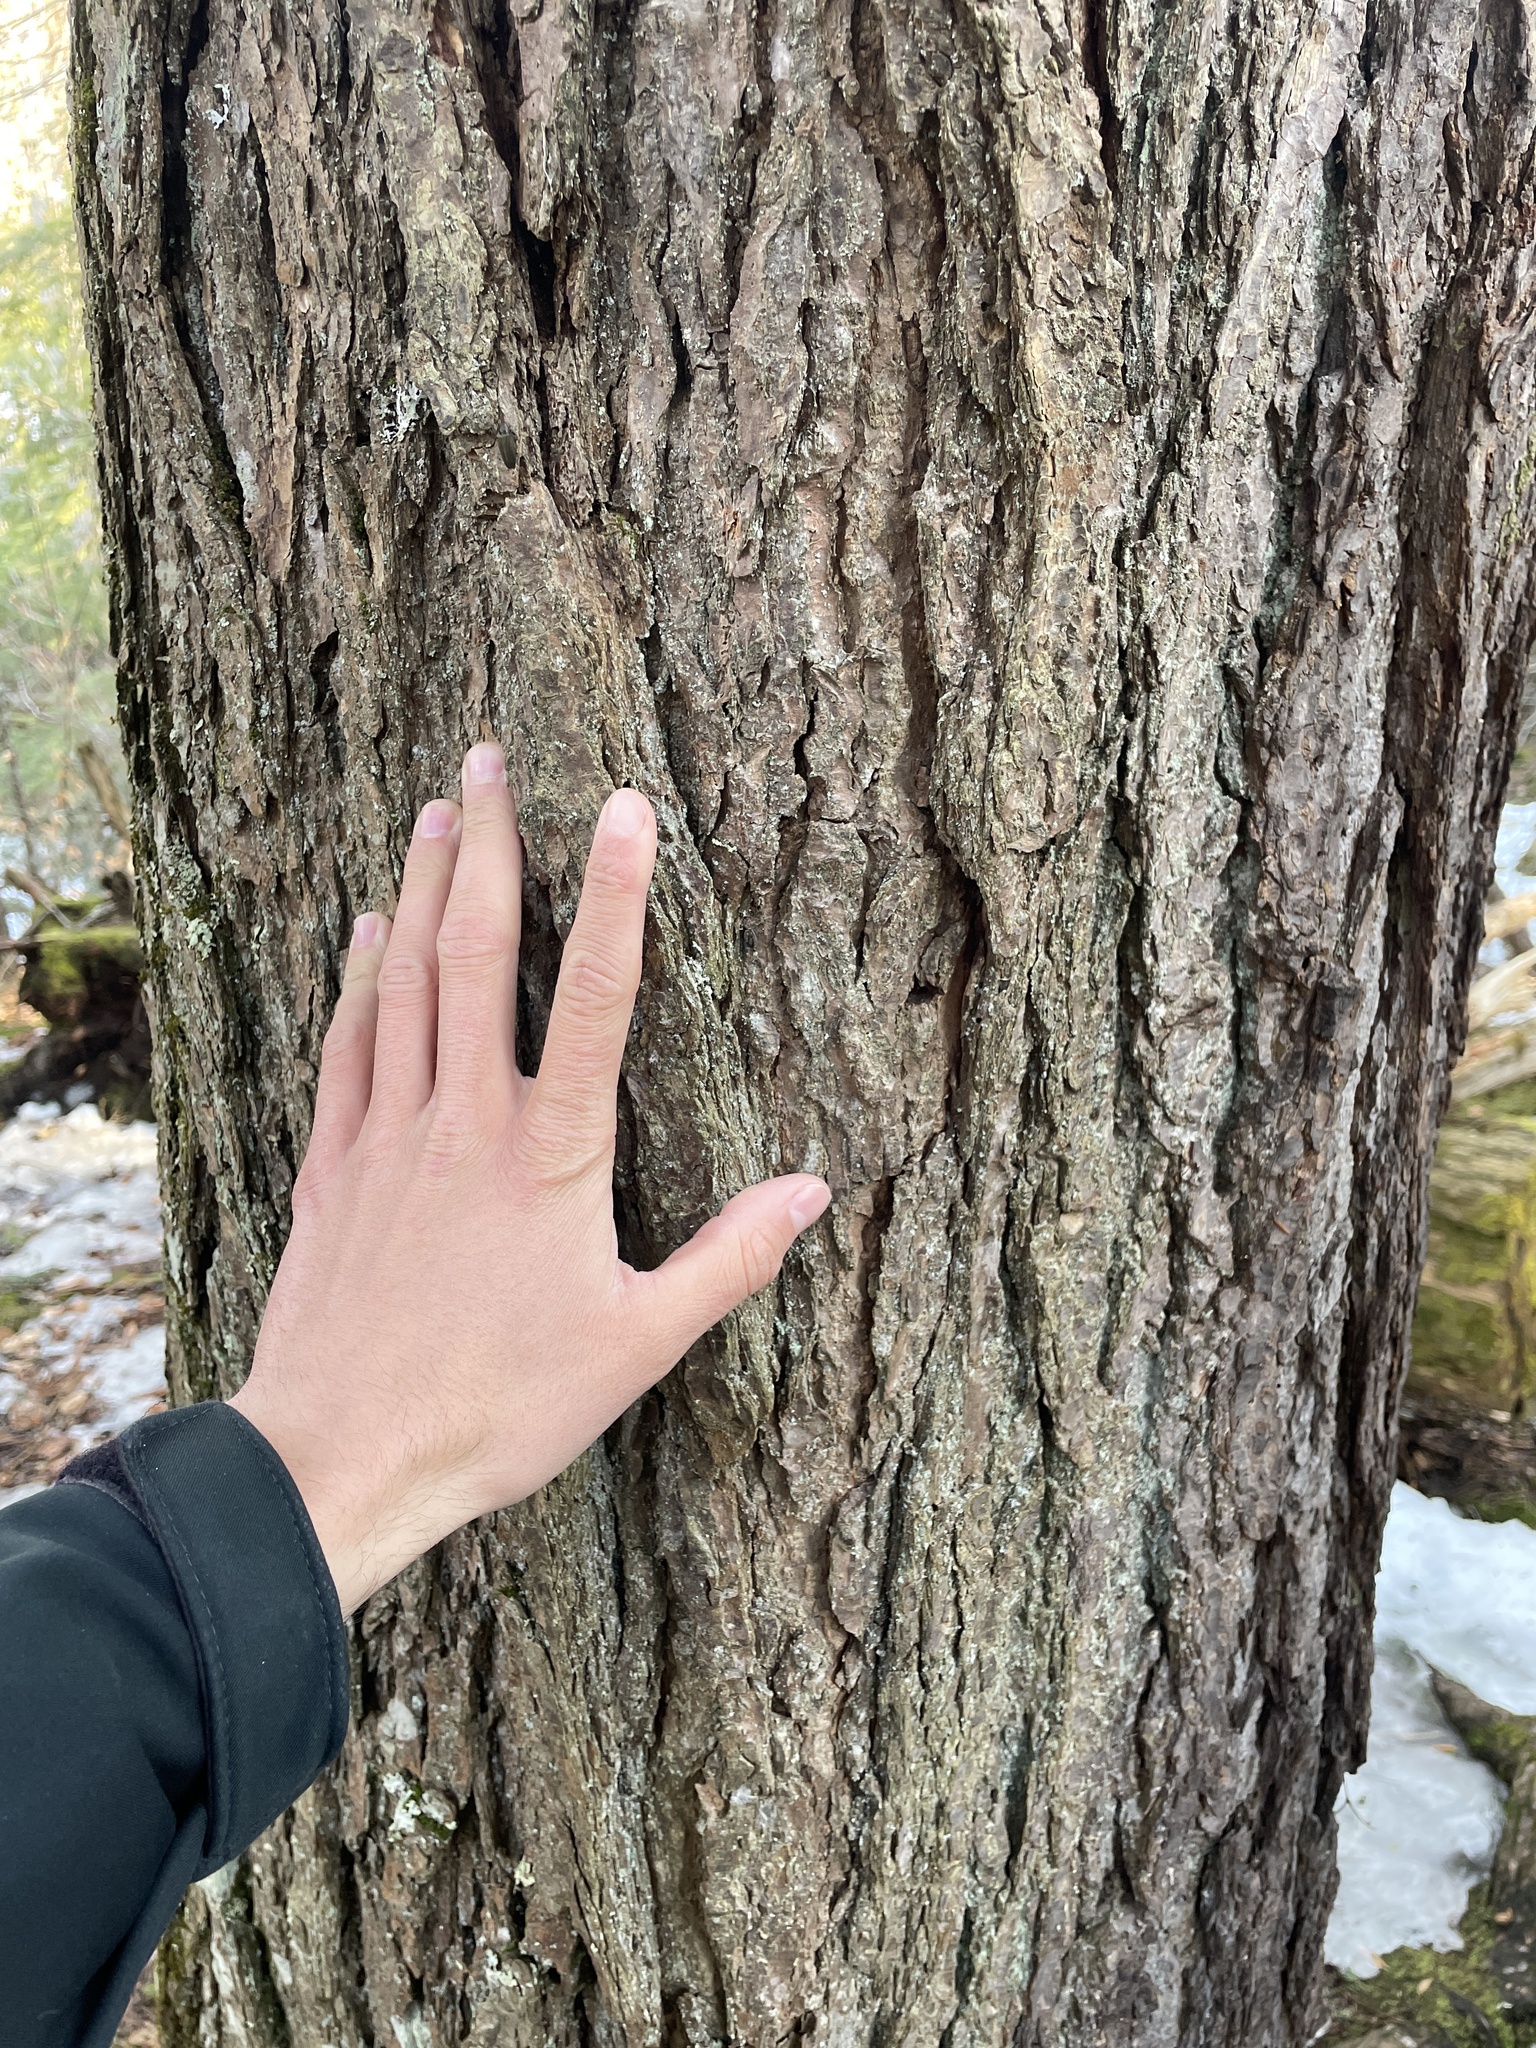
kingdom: Plantae
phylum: Tracheophyta
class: Pinopsida
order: Pinales
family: Pinaceae
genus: Tsuga
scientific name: Tsuga canadensis
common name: Eastern hemlock
